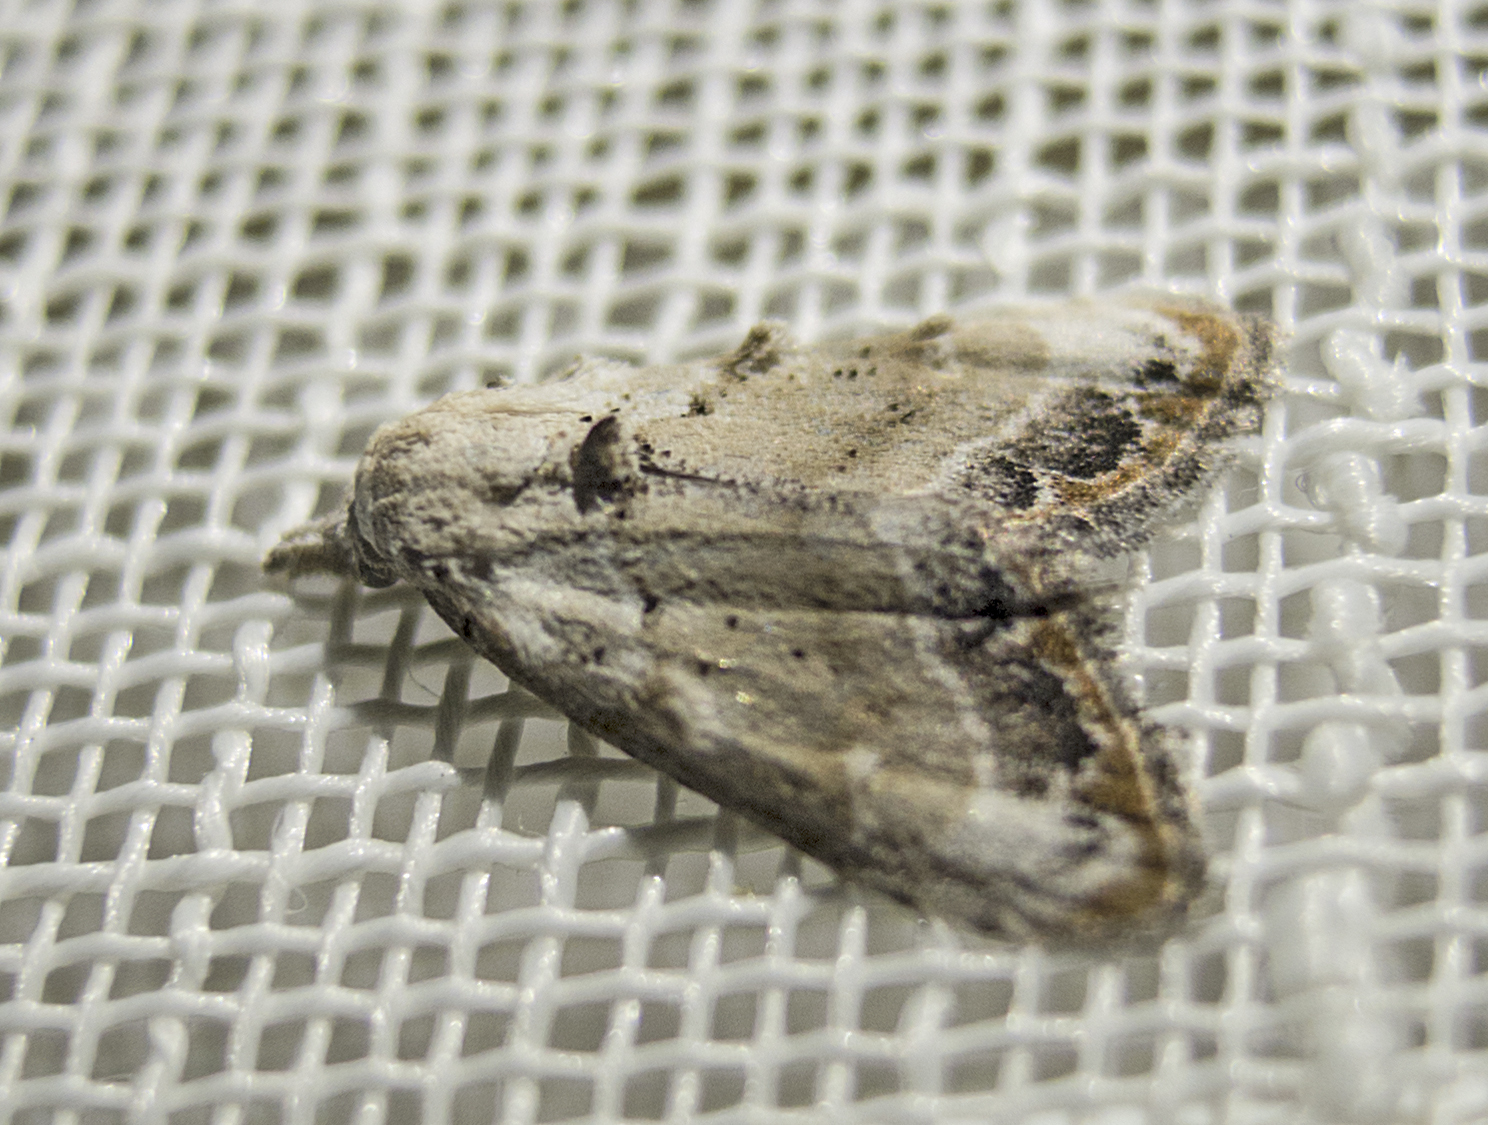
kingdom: Animalia
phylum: Arthropoda
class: Insecta
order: Lepidoptera
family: Nolidae
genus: Nola
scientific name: Nola chlamitulalis
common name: Jersey black arches
